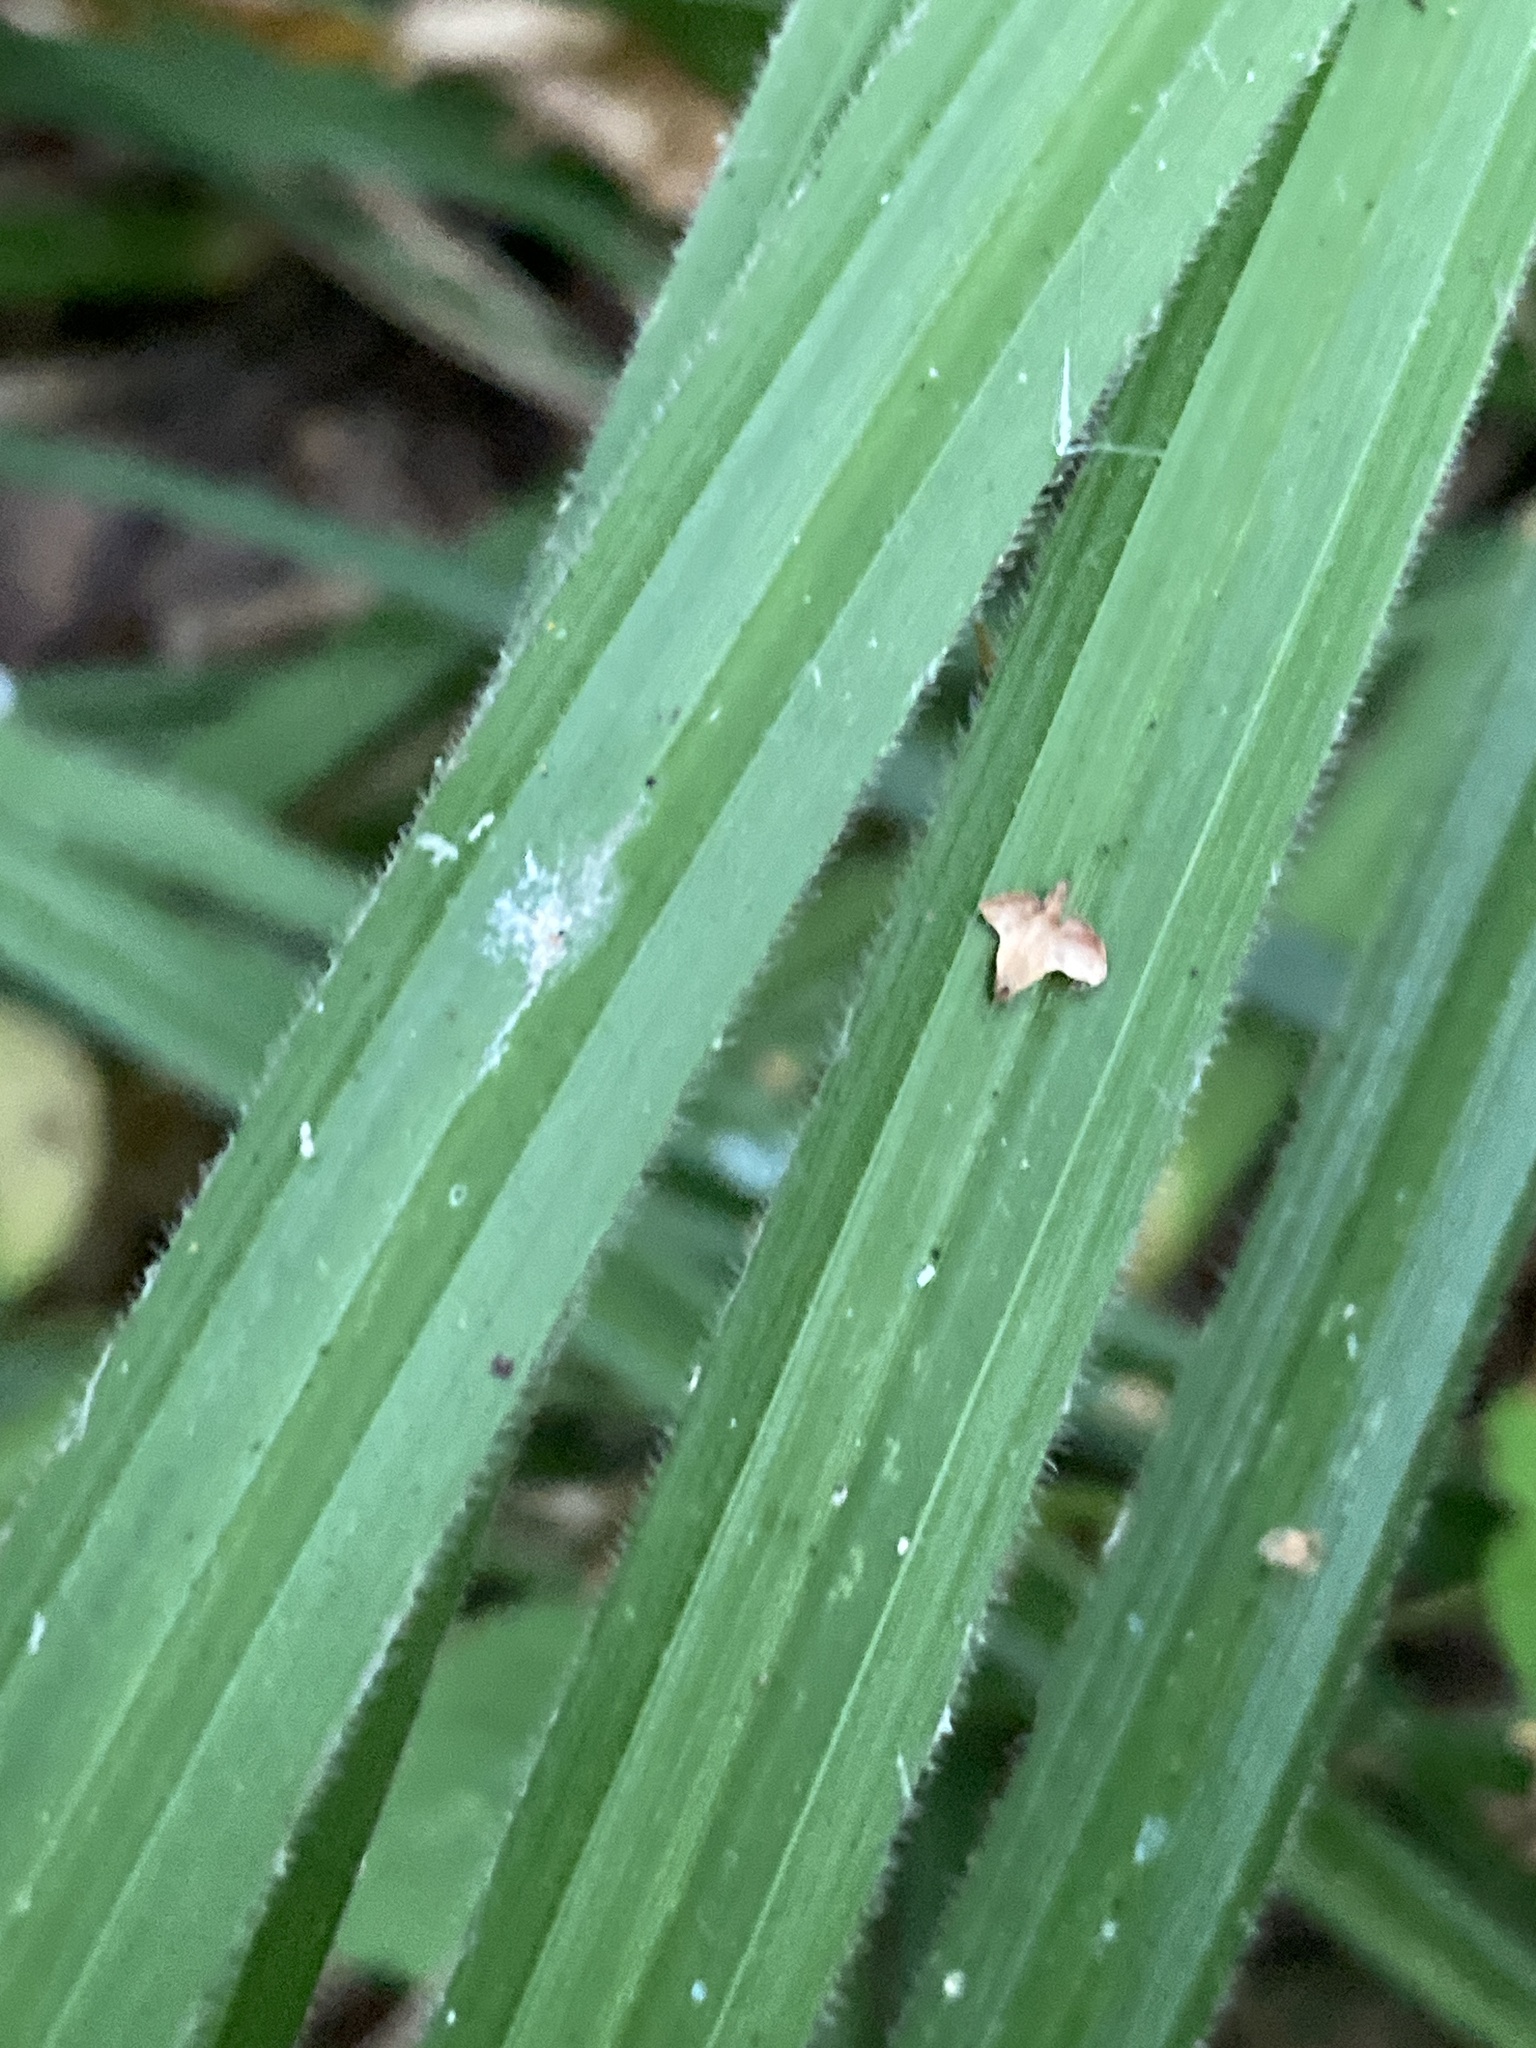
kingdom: Plantae
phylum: Tracheophyta
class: Liliopsida
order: Poales
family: Cyperaceae
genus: Carex
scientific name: Carex pilosa
